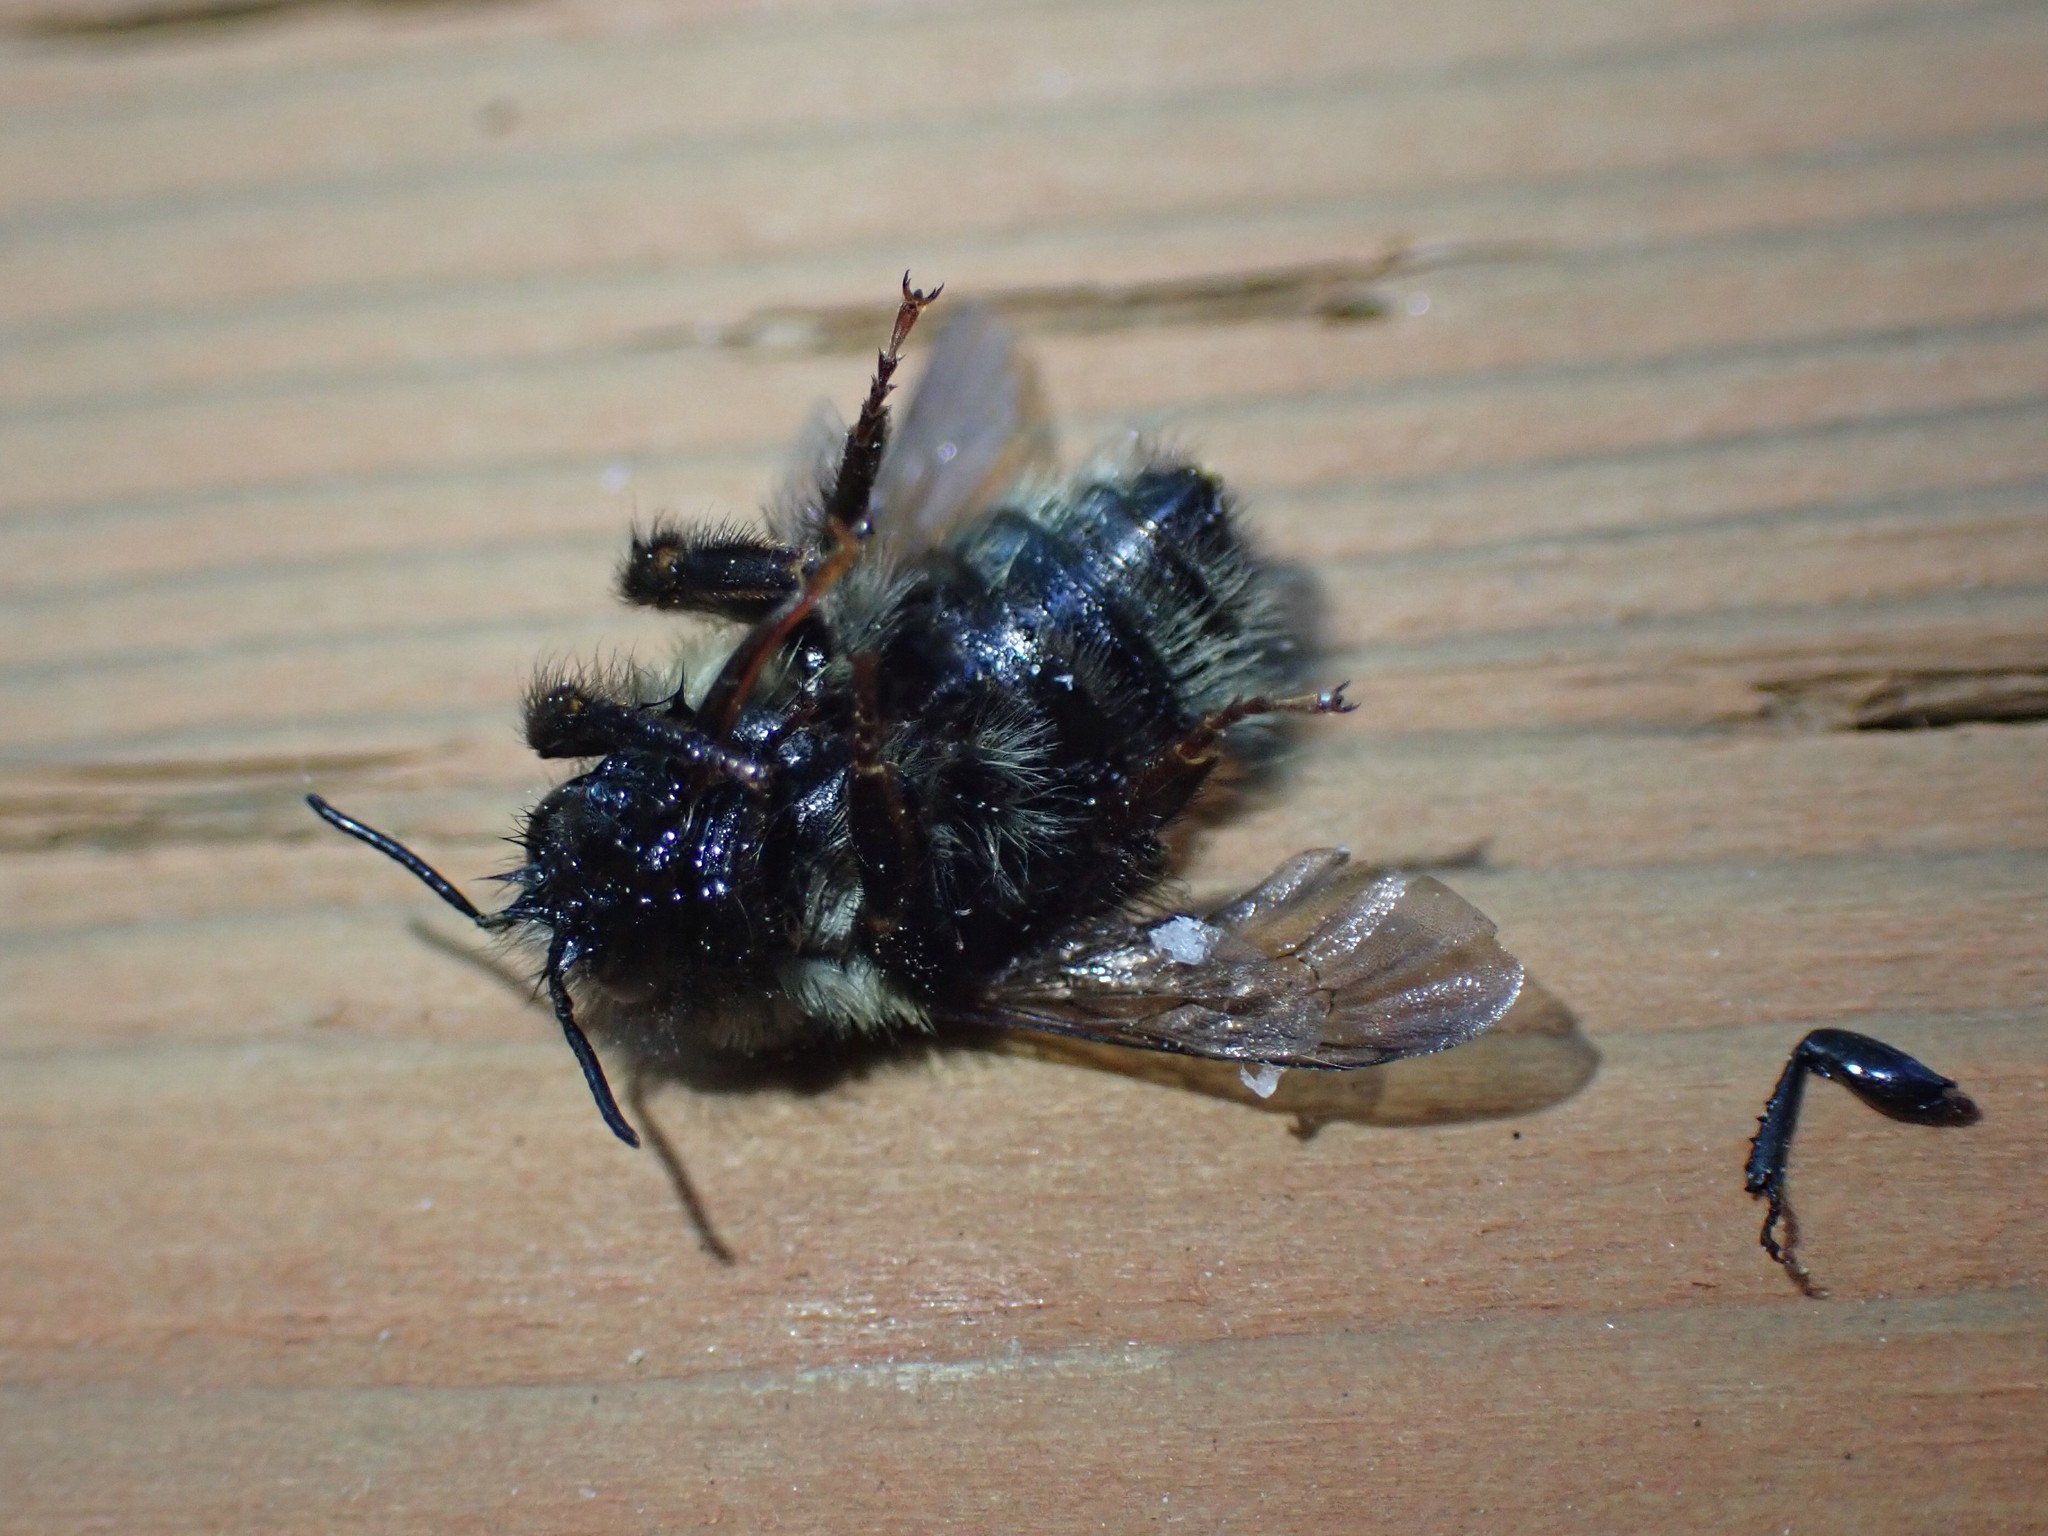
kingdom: Animalia
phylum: Arthropoda
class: Insecta
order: Hymenoptera
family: Apidae
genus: Bombus
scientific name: Bombus melanopygus
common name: Black tail bumble bee
